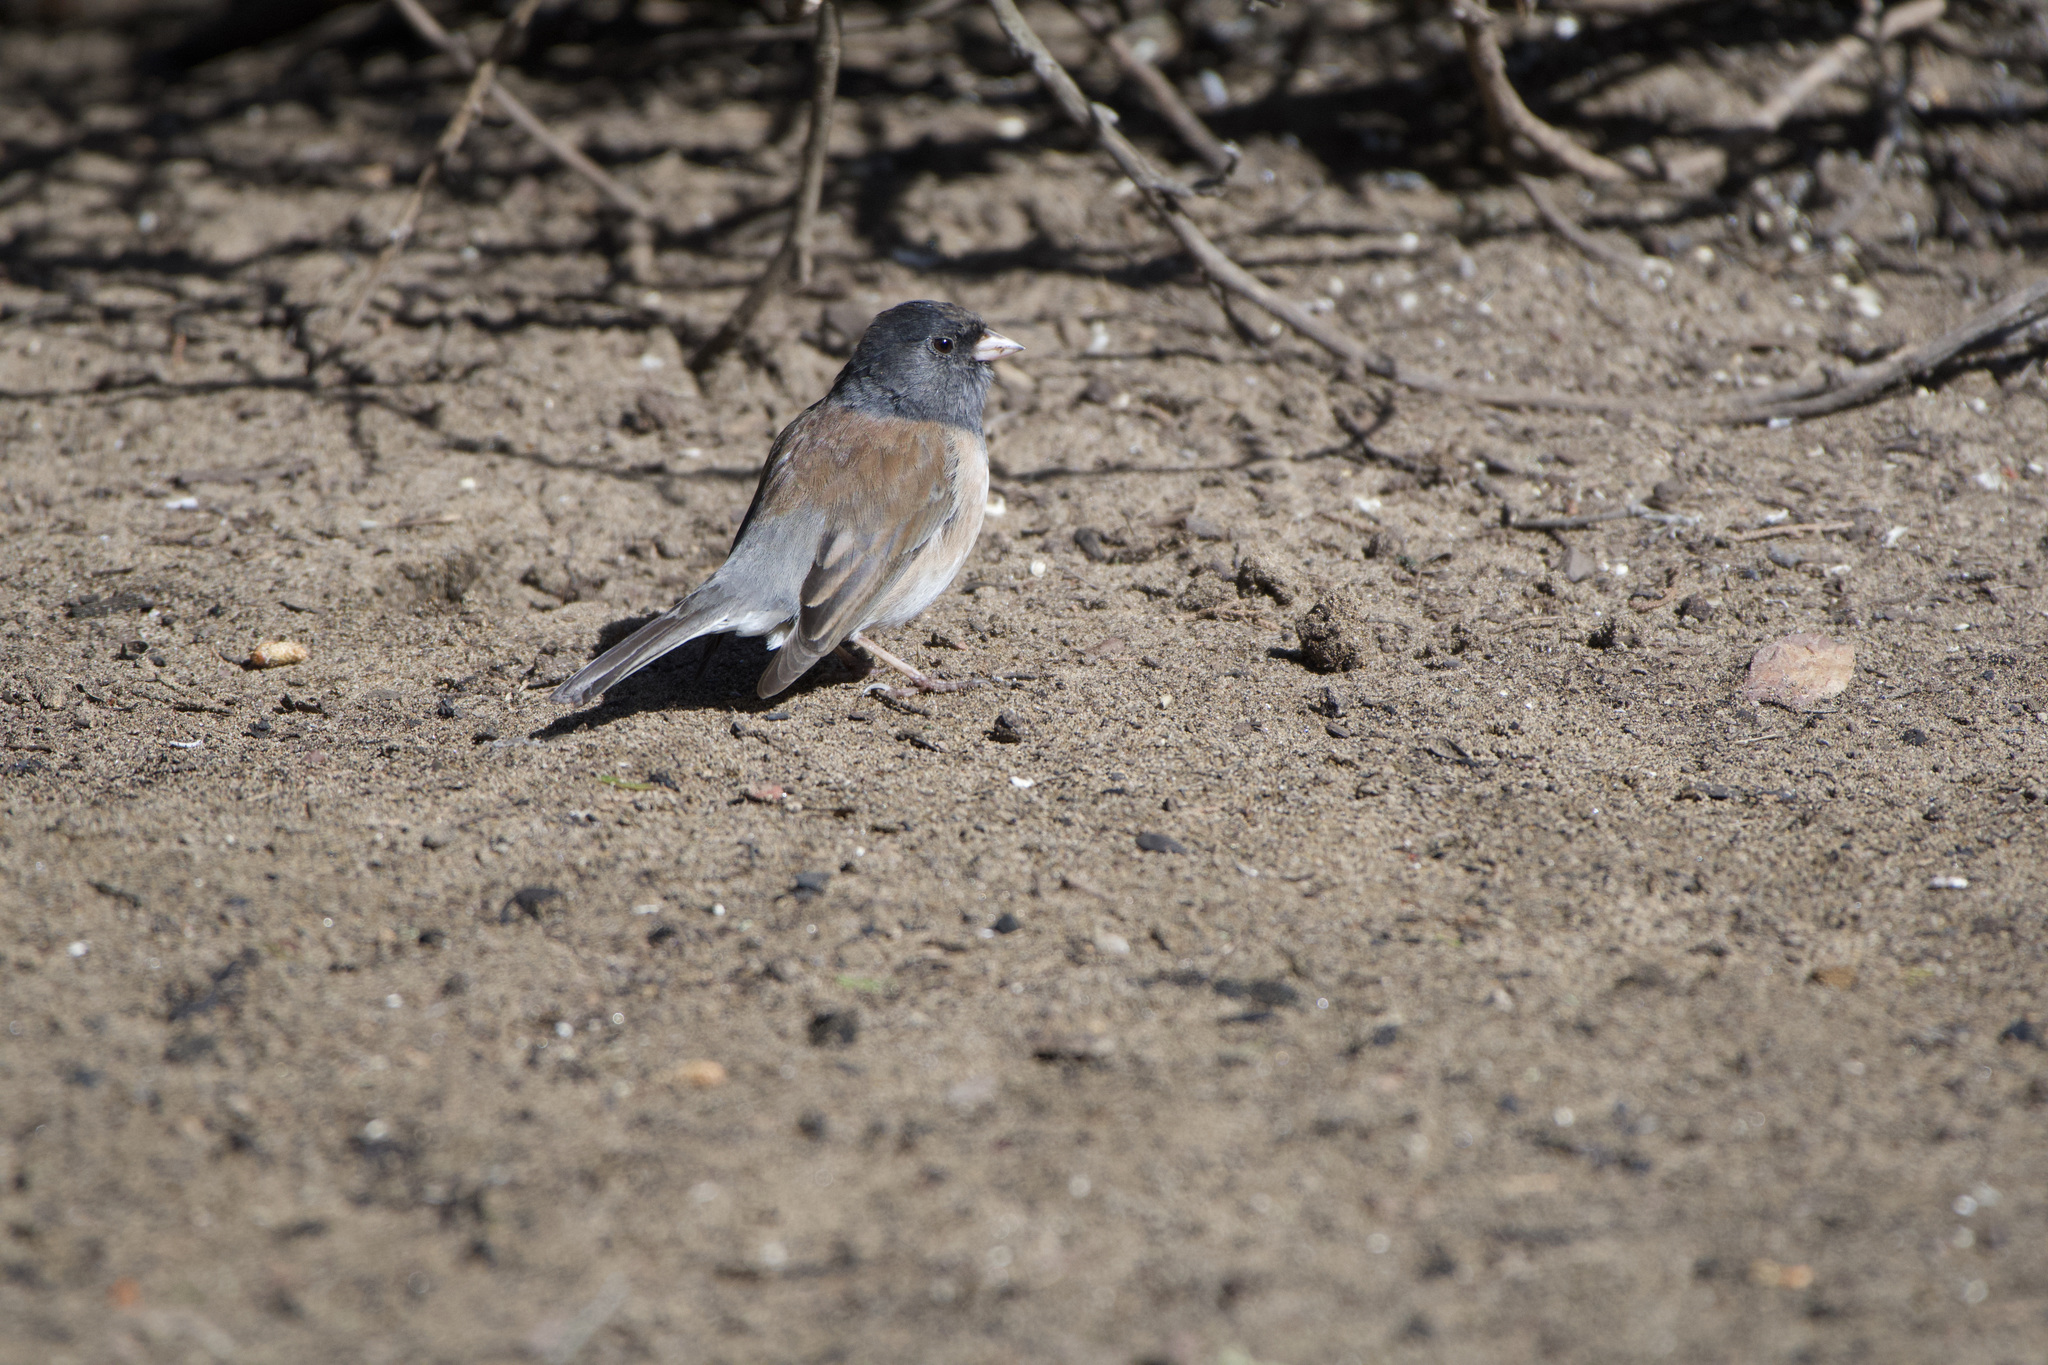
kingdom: Animalia
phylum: Chordata
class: Aves
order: Passeriformes
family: Passerellidae
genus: Junco
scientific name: Junco hyemalis
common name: Dark-eyed junco
